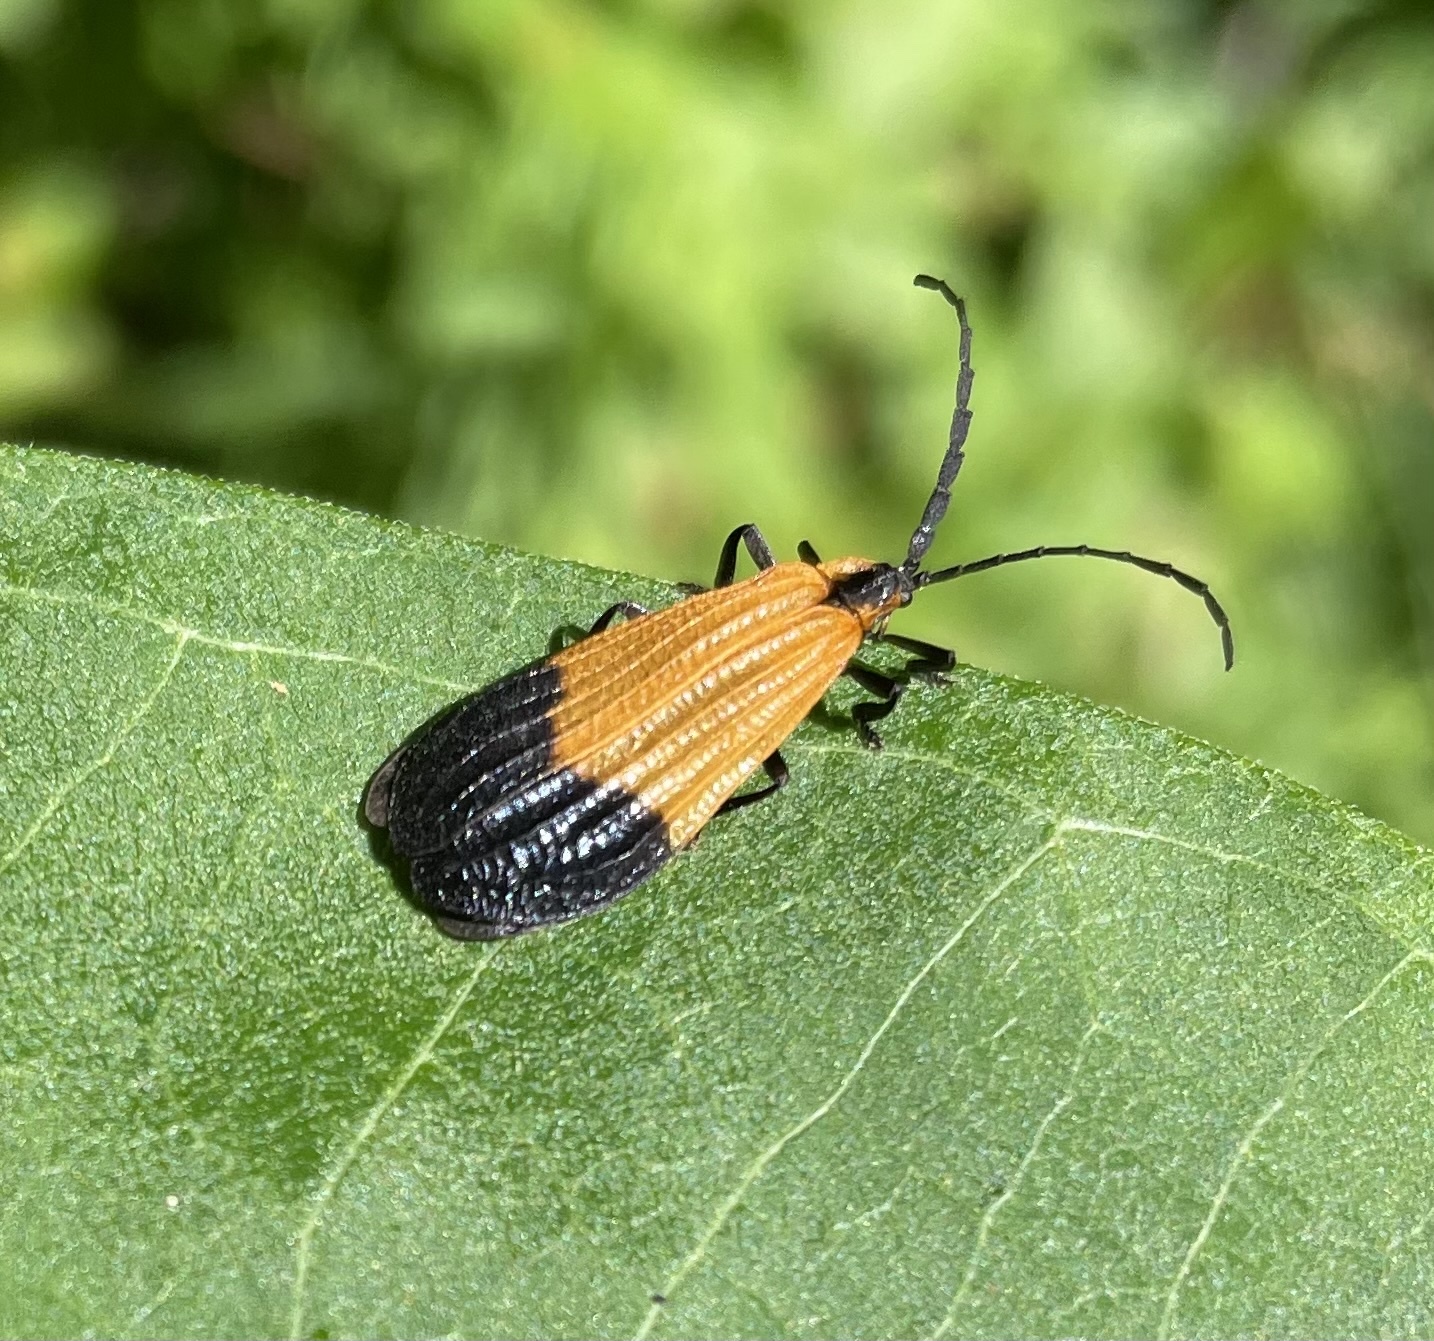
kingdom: Animalia
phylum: Arthropoda
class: Insecta
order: Coleoptera
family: Lycidae
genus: Calopteron
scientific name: Calopteron terminale
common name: End band net-winged beetle
